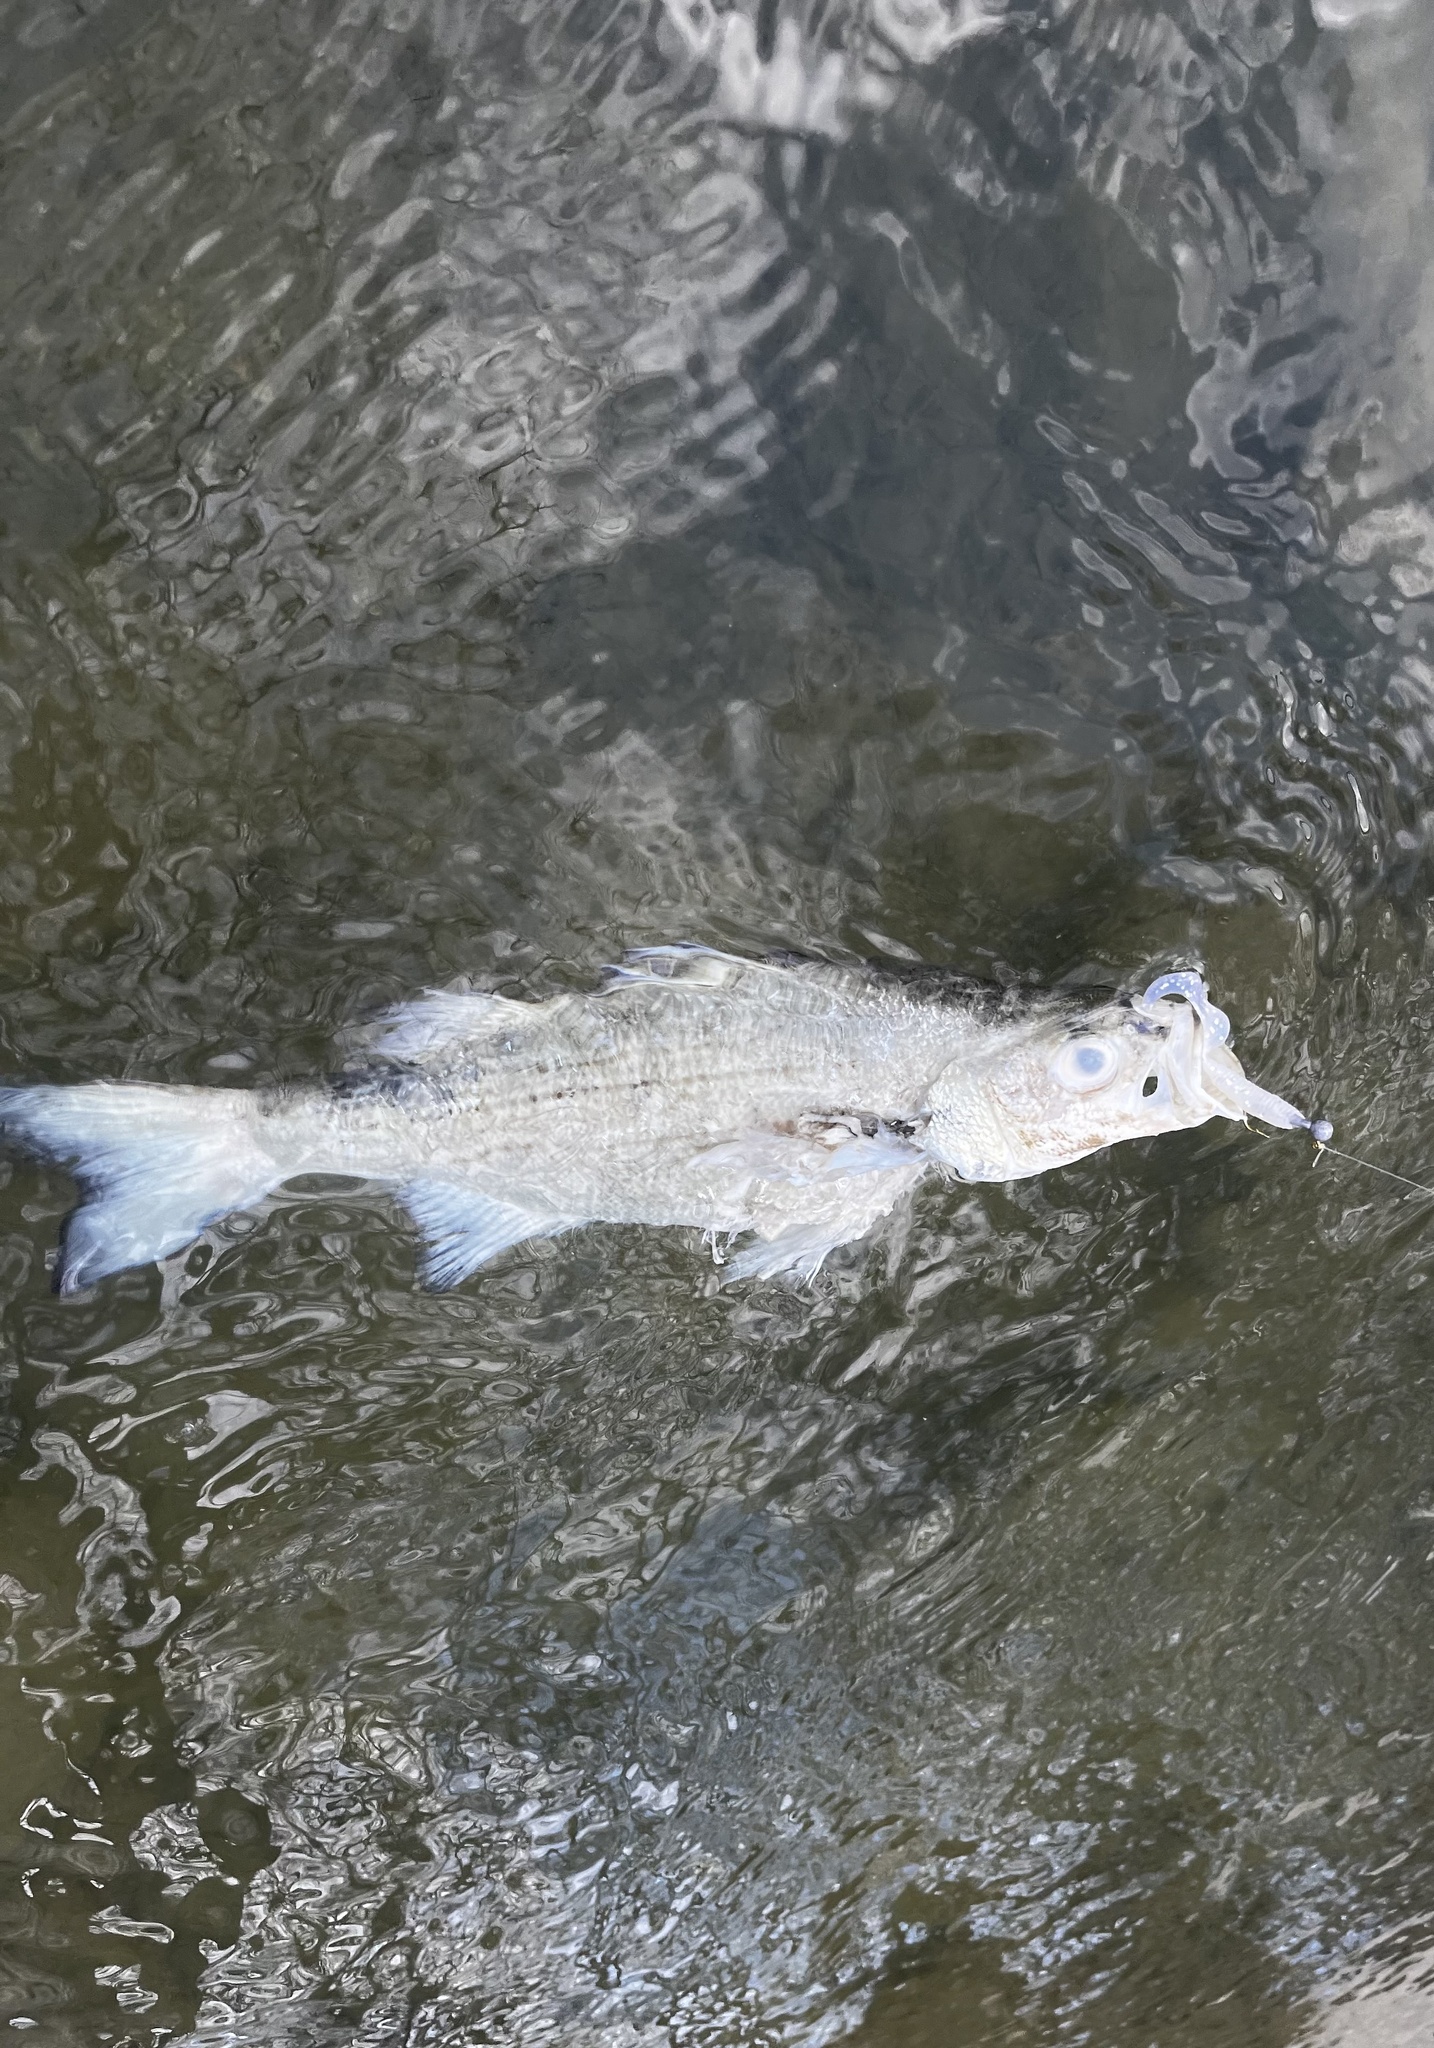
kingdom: Animalia
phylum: Chordata
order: Perciformes
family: Moronidae
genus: Morone
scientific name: Morone chrysops
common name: White bass
